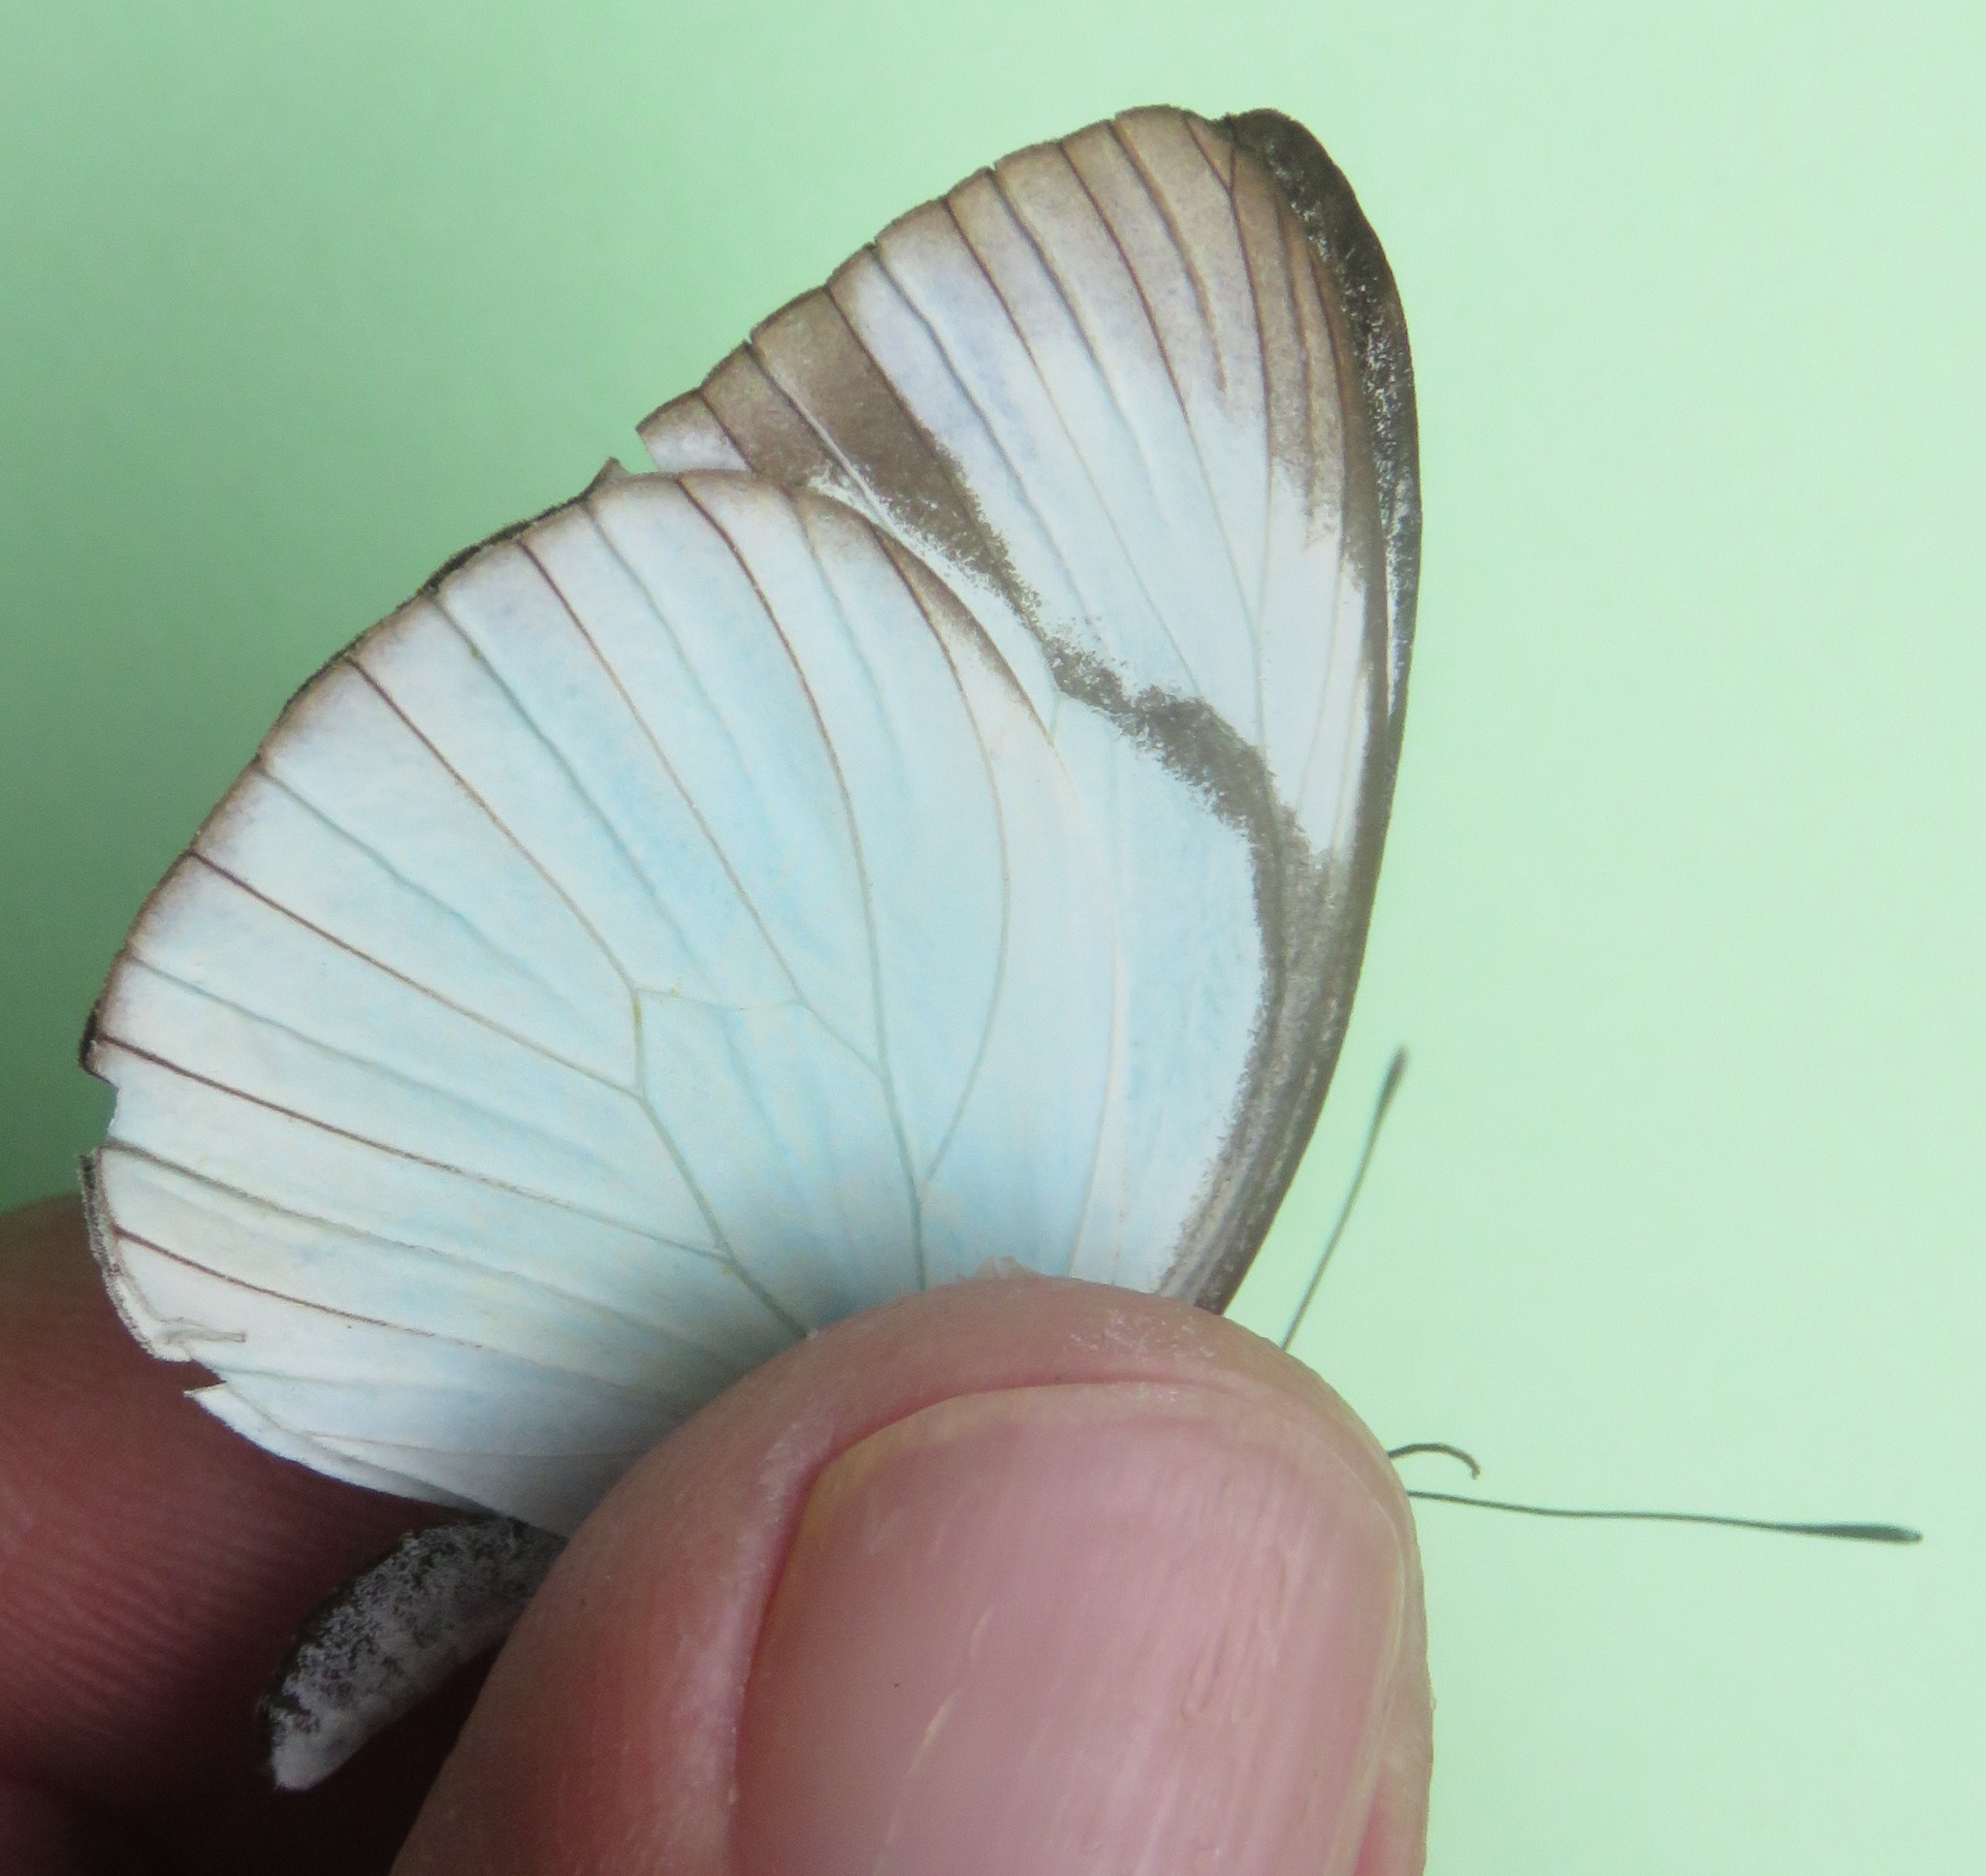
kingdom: Animalia
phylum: Arthropoda
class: Insecta
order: Lepidoptera
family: Pieridae
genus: Itaballia
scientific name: Itaballia demophile
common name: Cross-barred white
